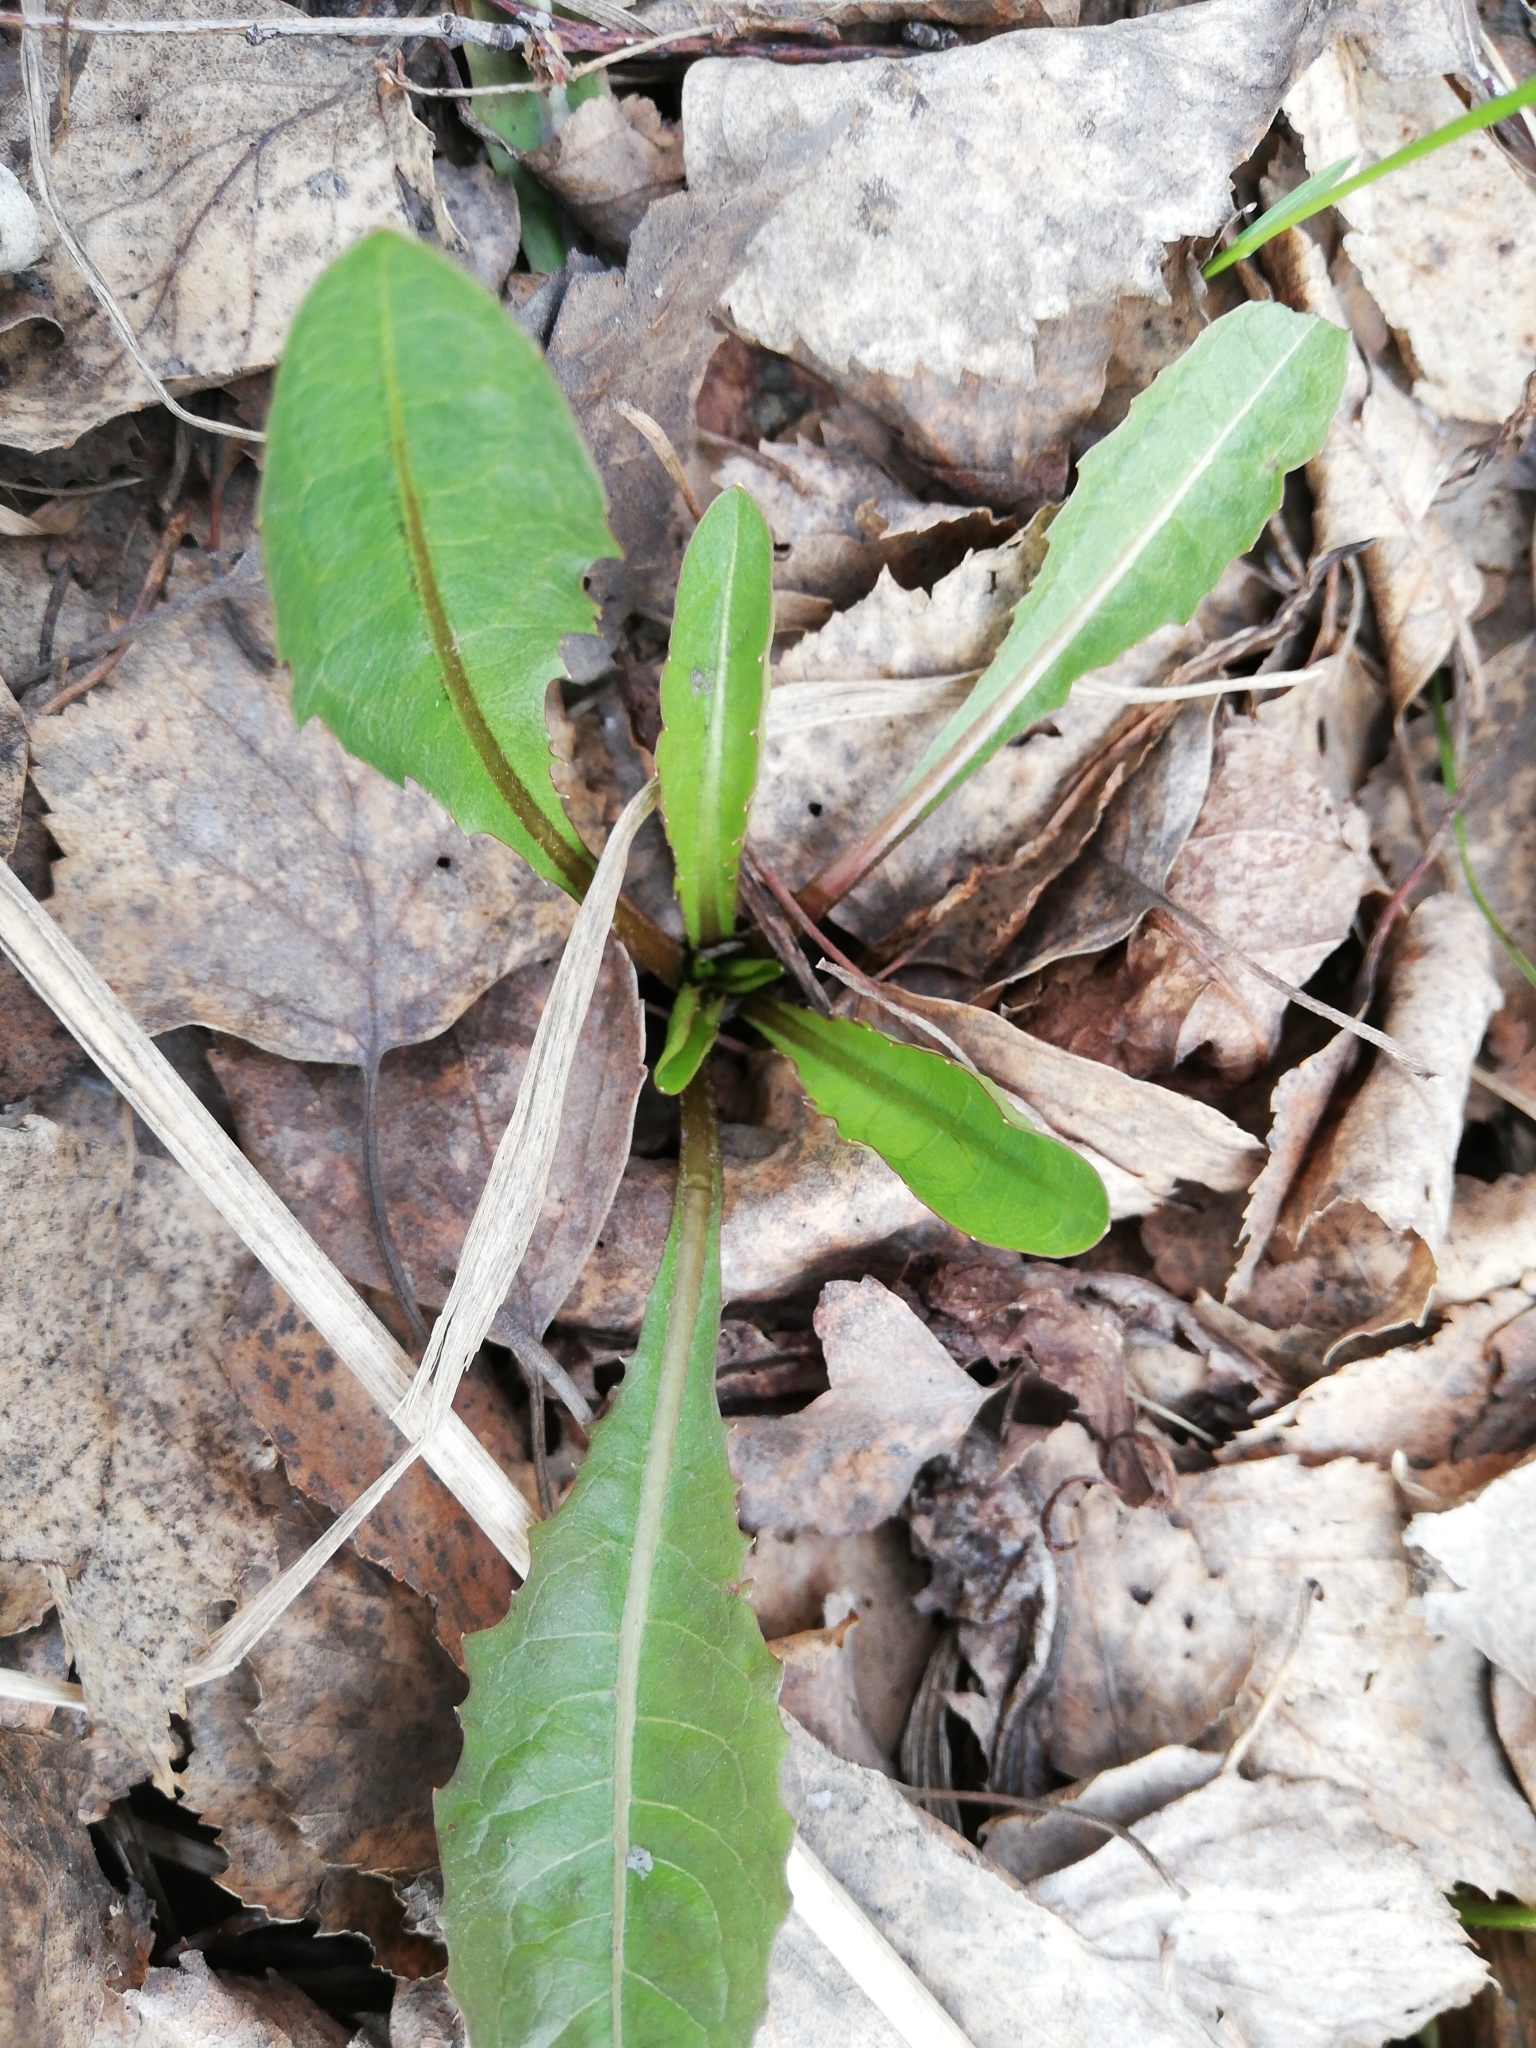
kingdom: Plantae
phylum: Tracheophyta
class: Magnoliopsida
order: Asterales
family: Asteraceae
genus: Taraxacum
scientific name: Taraxacum officinale
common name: Common dandelion
